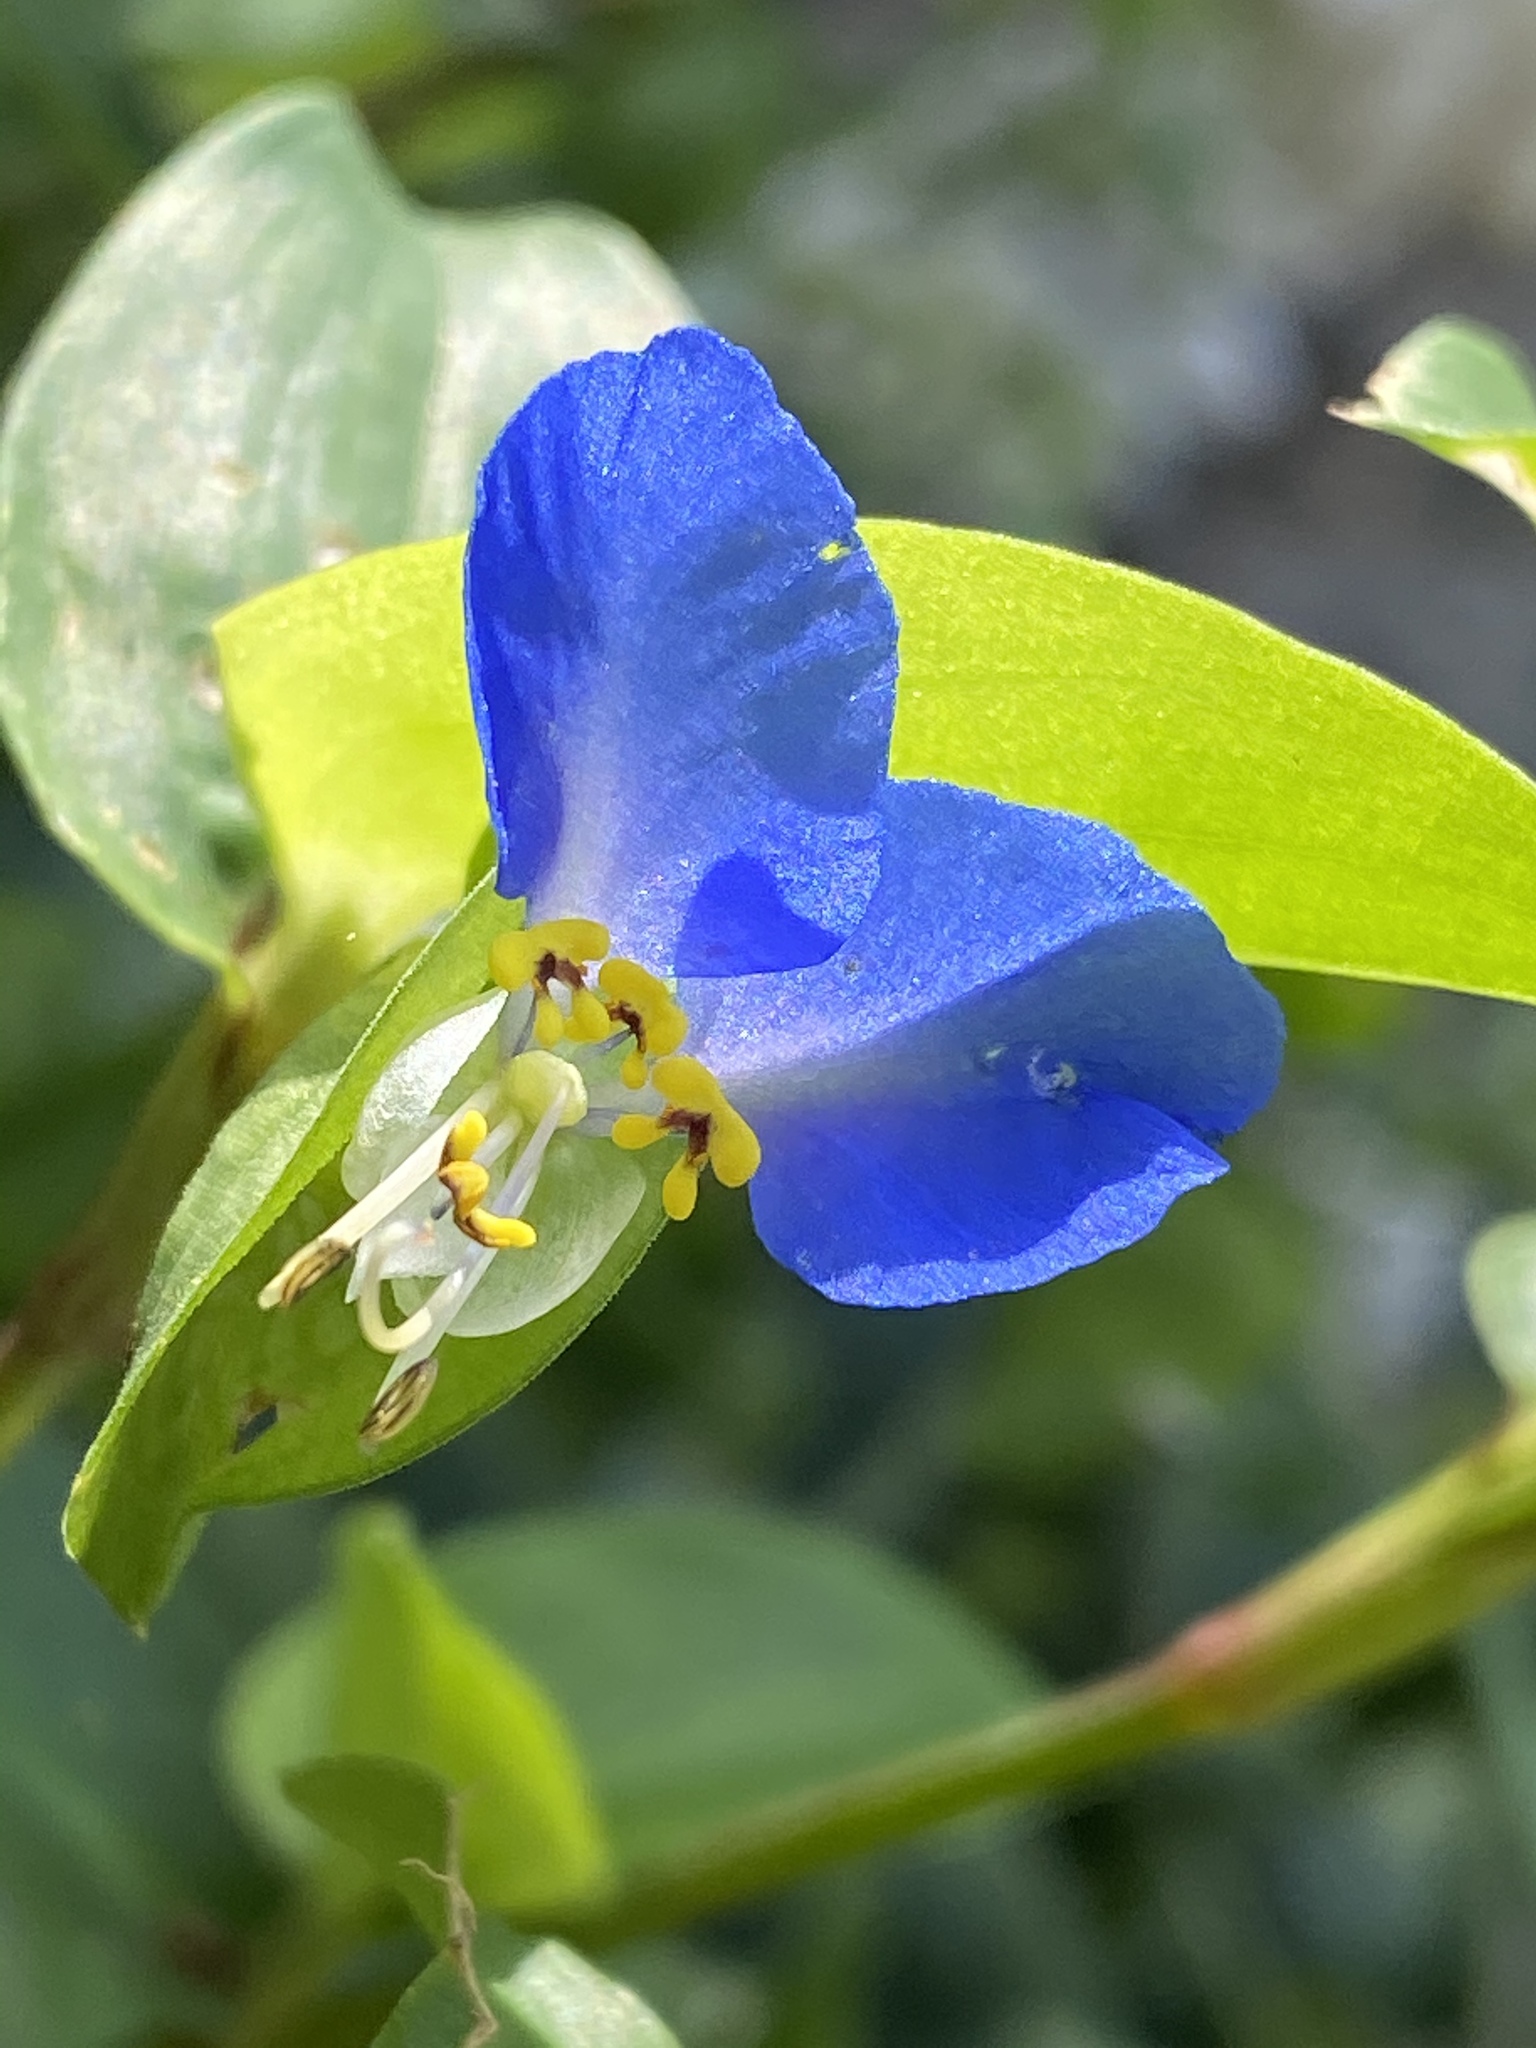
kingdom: Plantae
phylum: Tracheophyta
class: Liliopsida
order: Commelinales
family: Commelinaceae
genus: Commelina
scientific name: Commelina communis
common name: Asiatic dayflower
